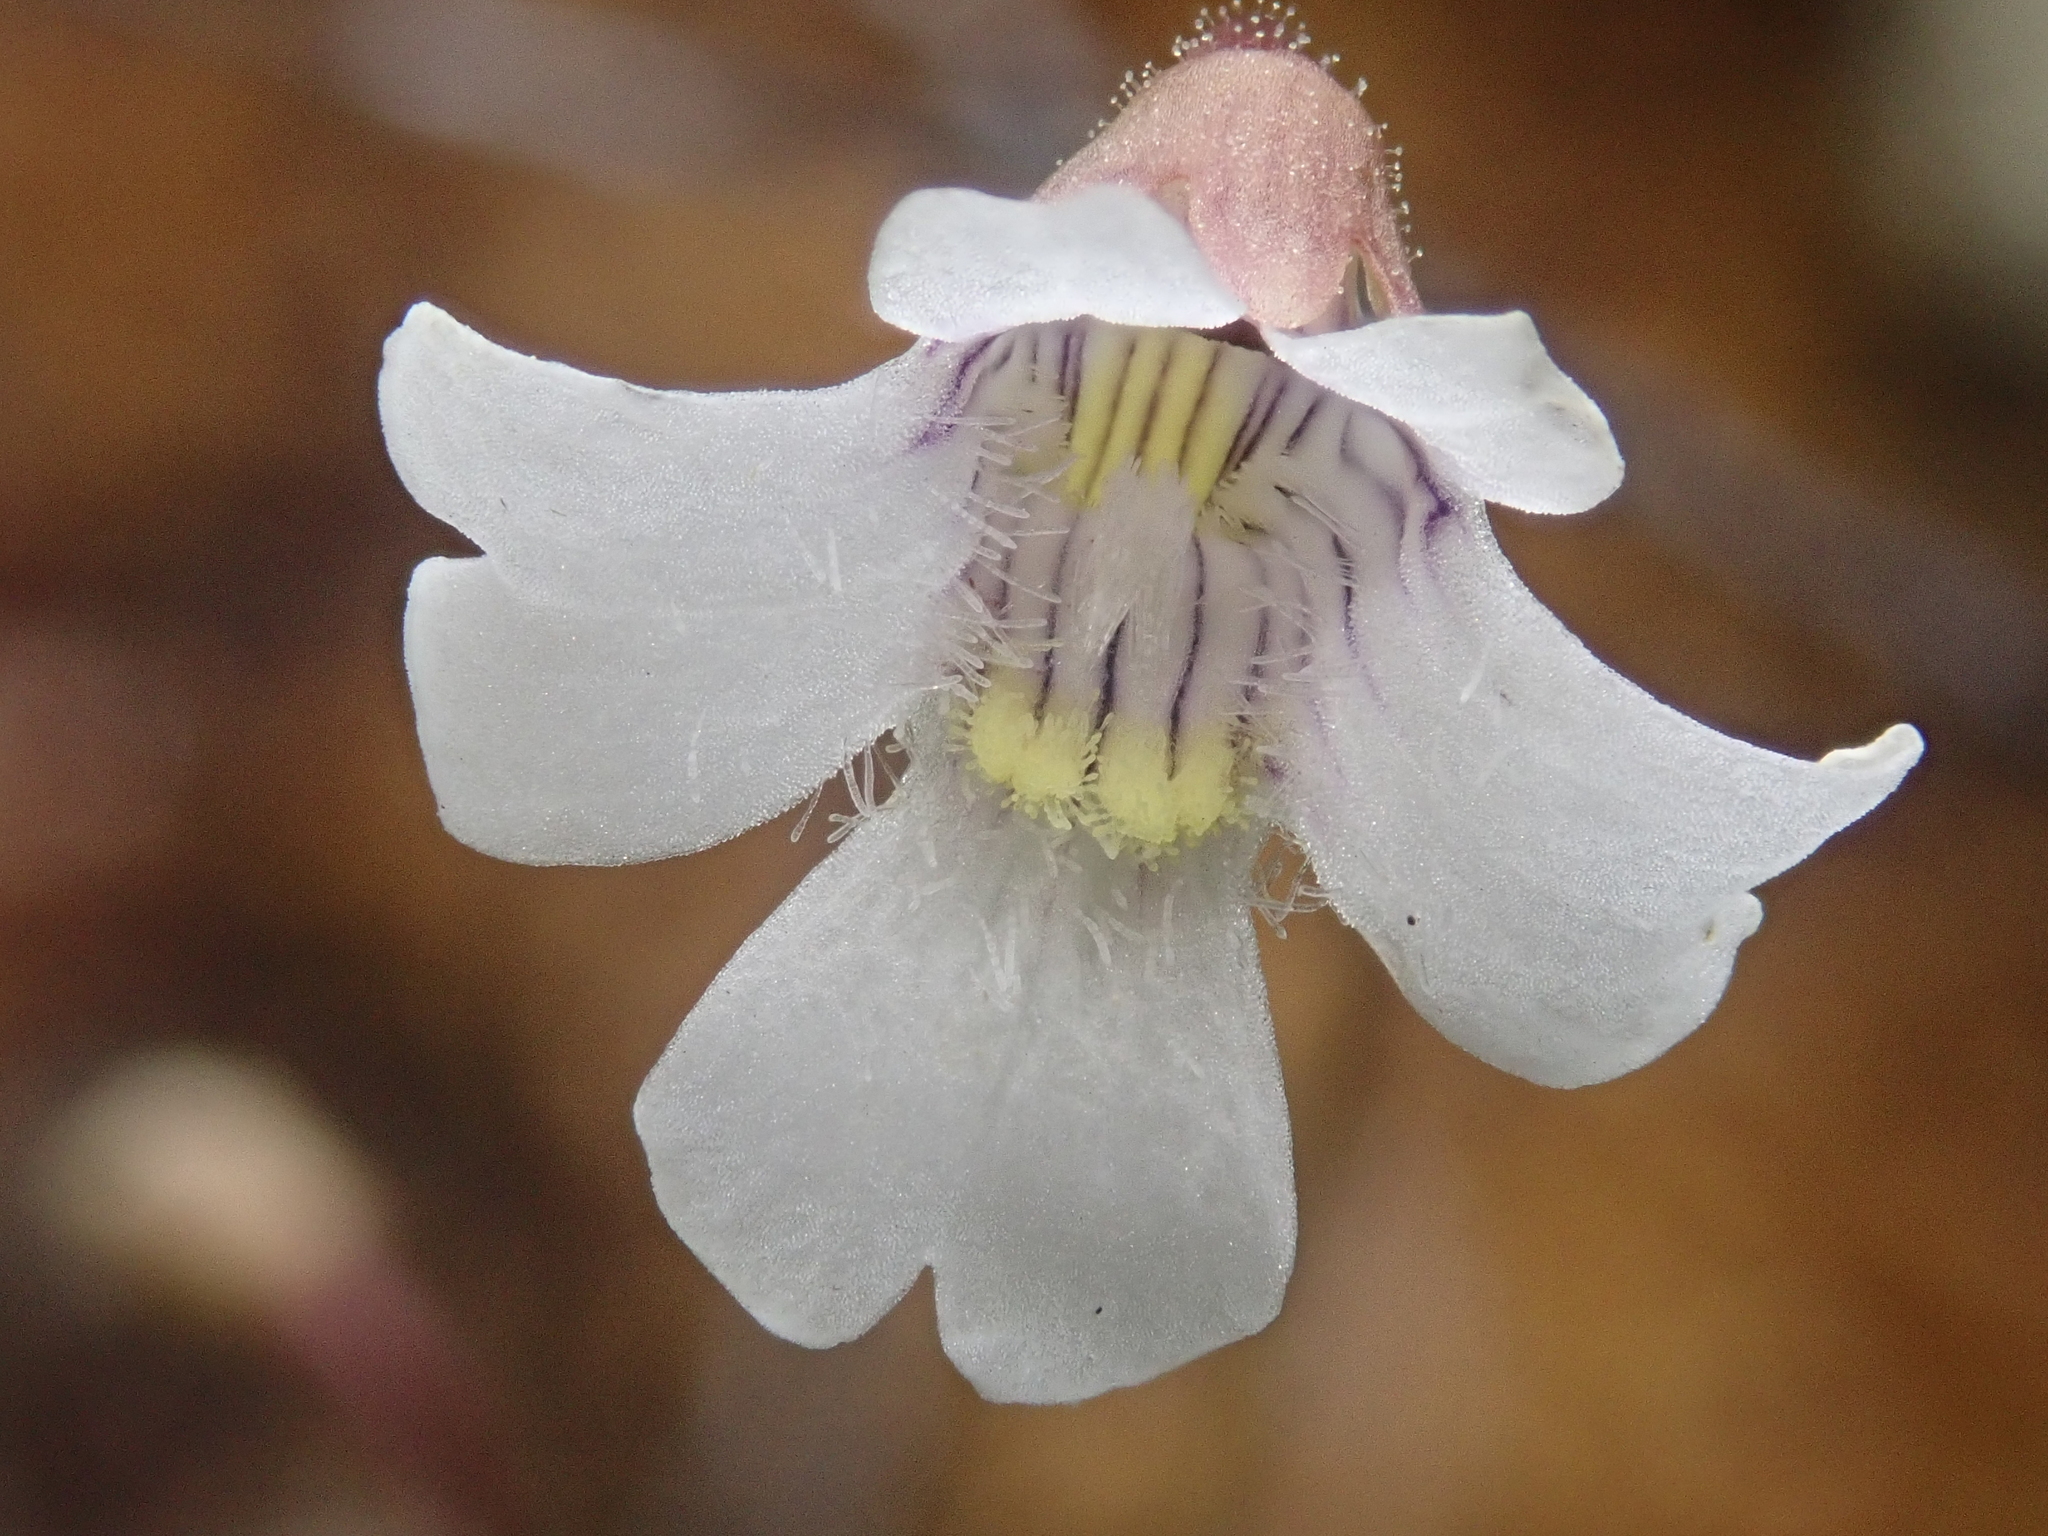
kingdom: Plantae
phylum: Tracheophyta
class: Magnoliopsida
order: Lamiales
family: Lentibulariaceae
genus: Pinguicula
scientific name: Pinguicula antarctica
